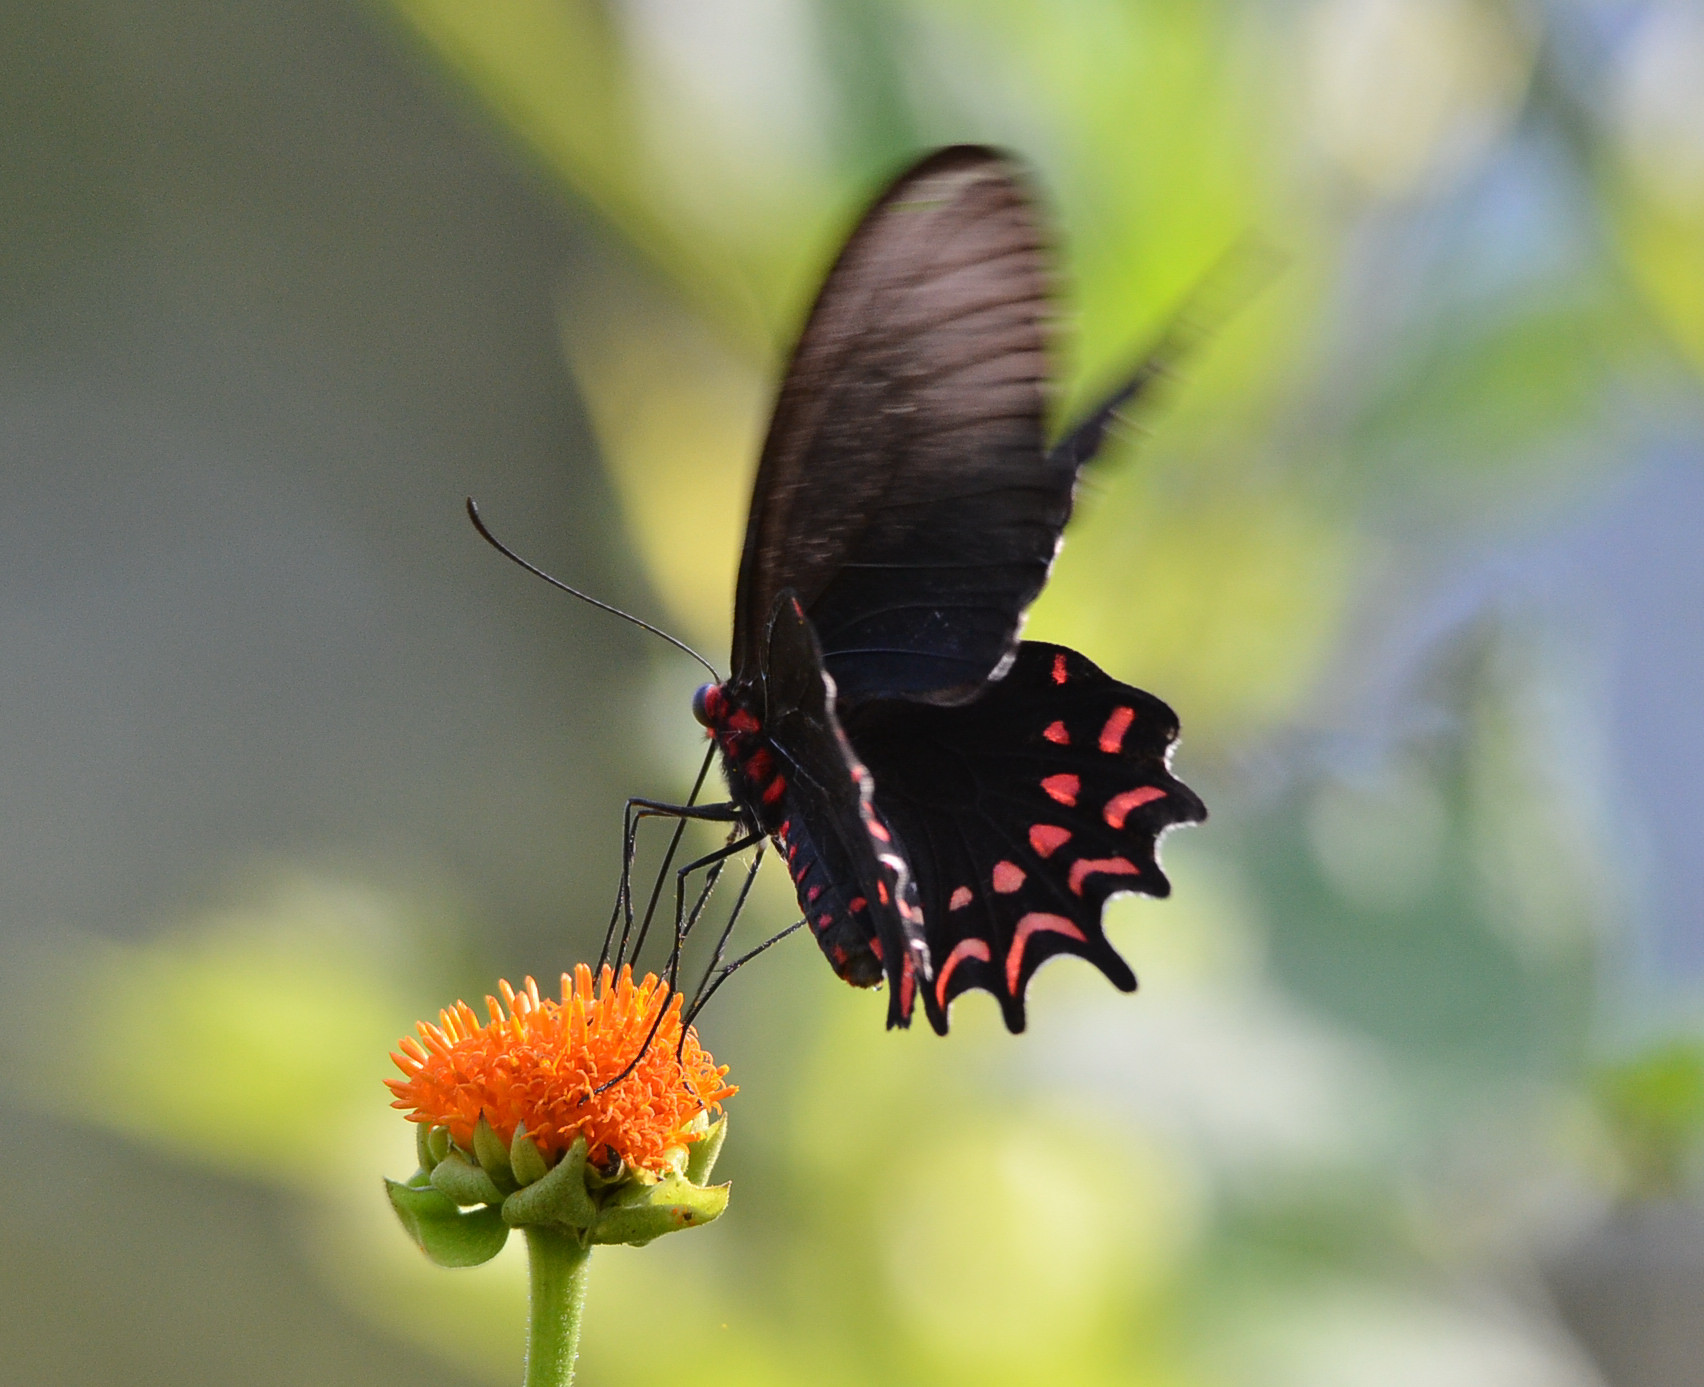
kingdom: Animalia
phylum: Arthropoda
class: Insecta
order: Lepidoptera
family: Papilionidae
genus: Parides
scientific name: Parides photinus
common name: Pink-spotted cattleheart
